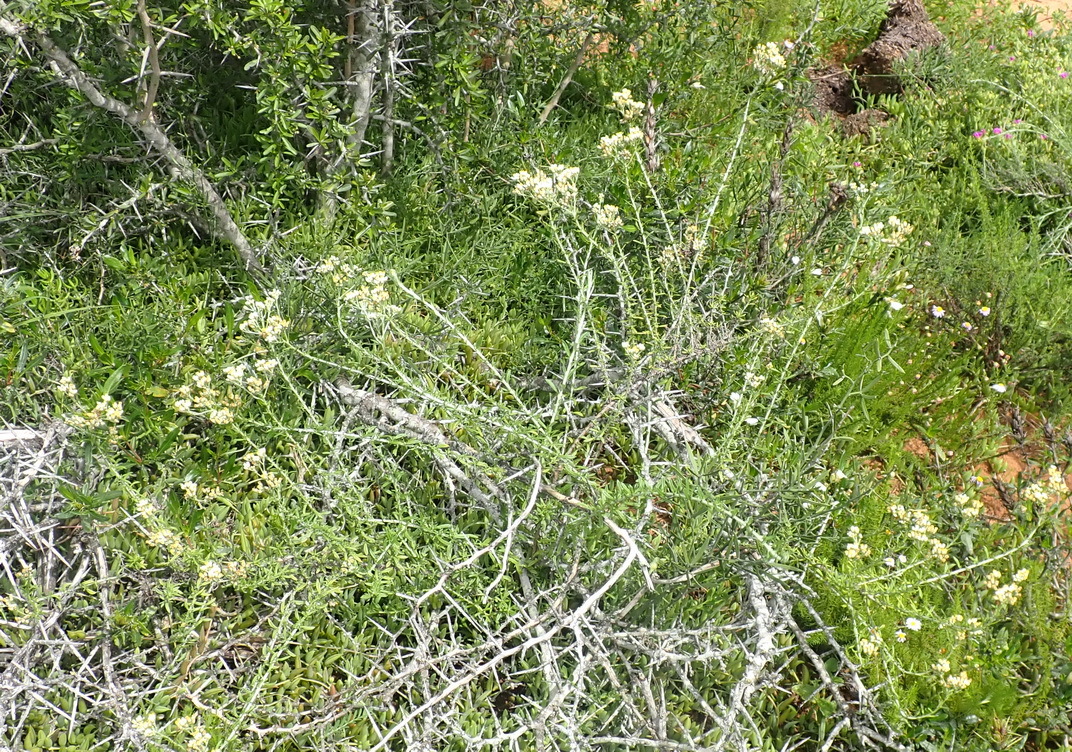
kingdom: Plantae
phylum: Tracheophyta
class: Magnoliopsida
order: Asterales
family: Asteraceae
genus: Helichrysum
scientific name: Helichrysum rosum
